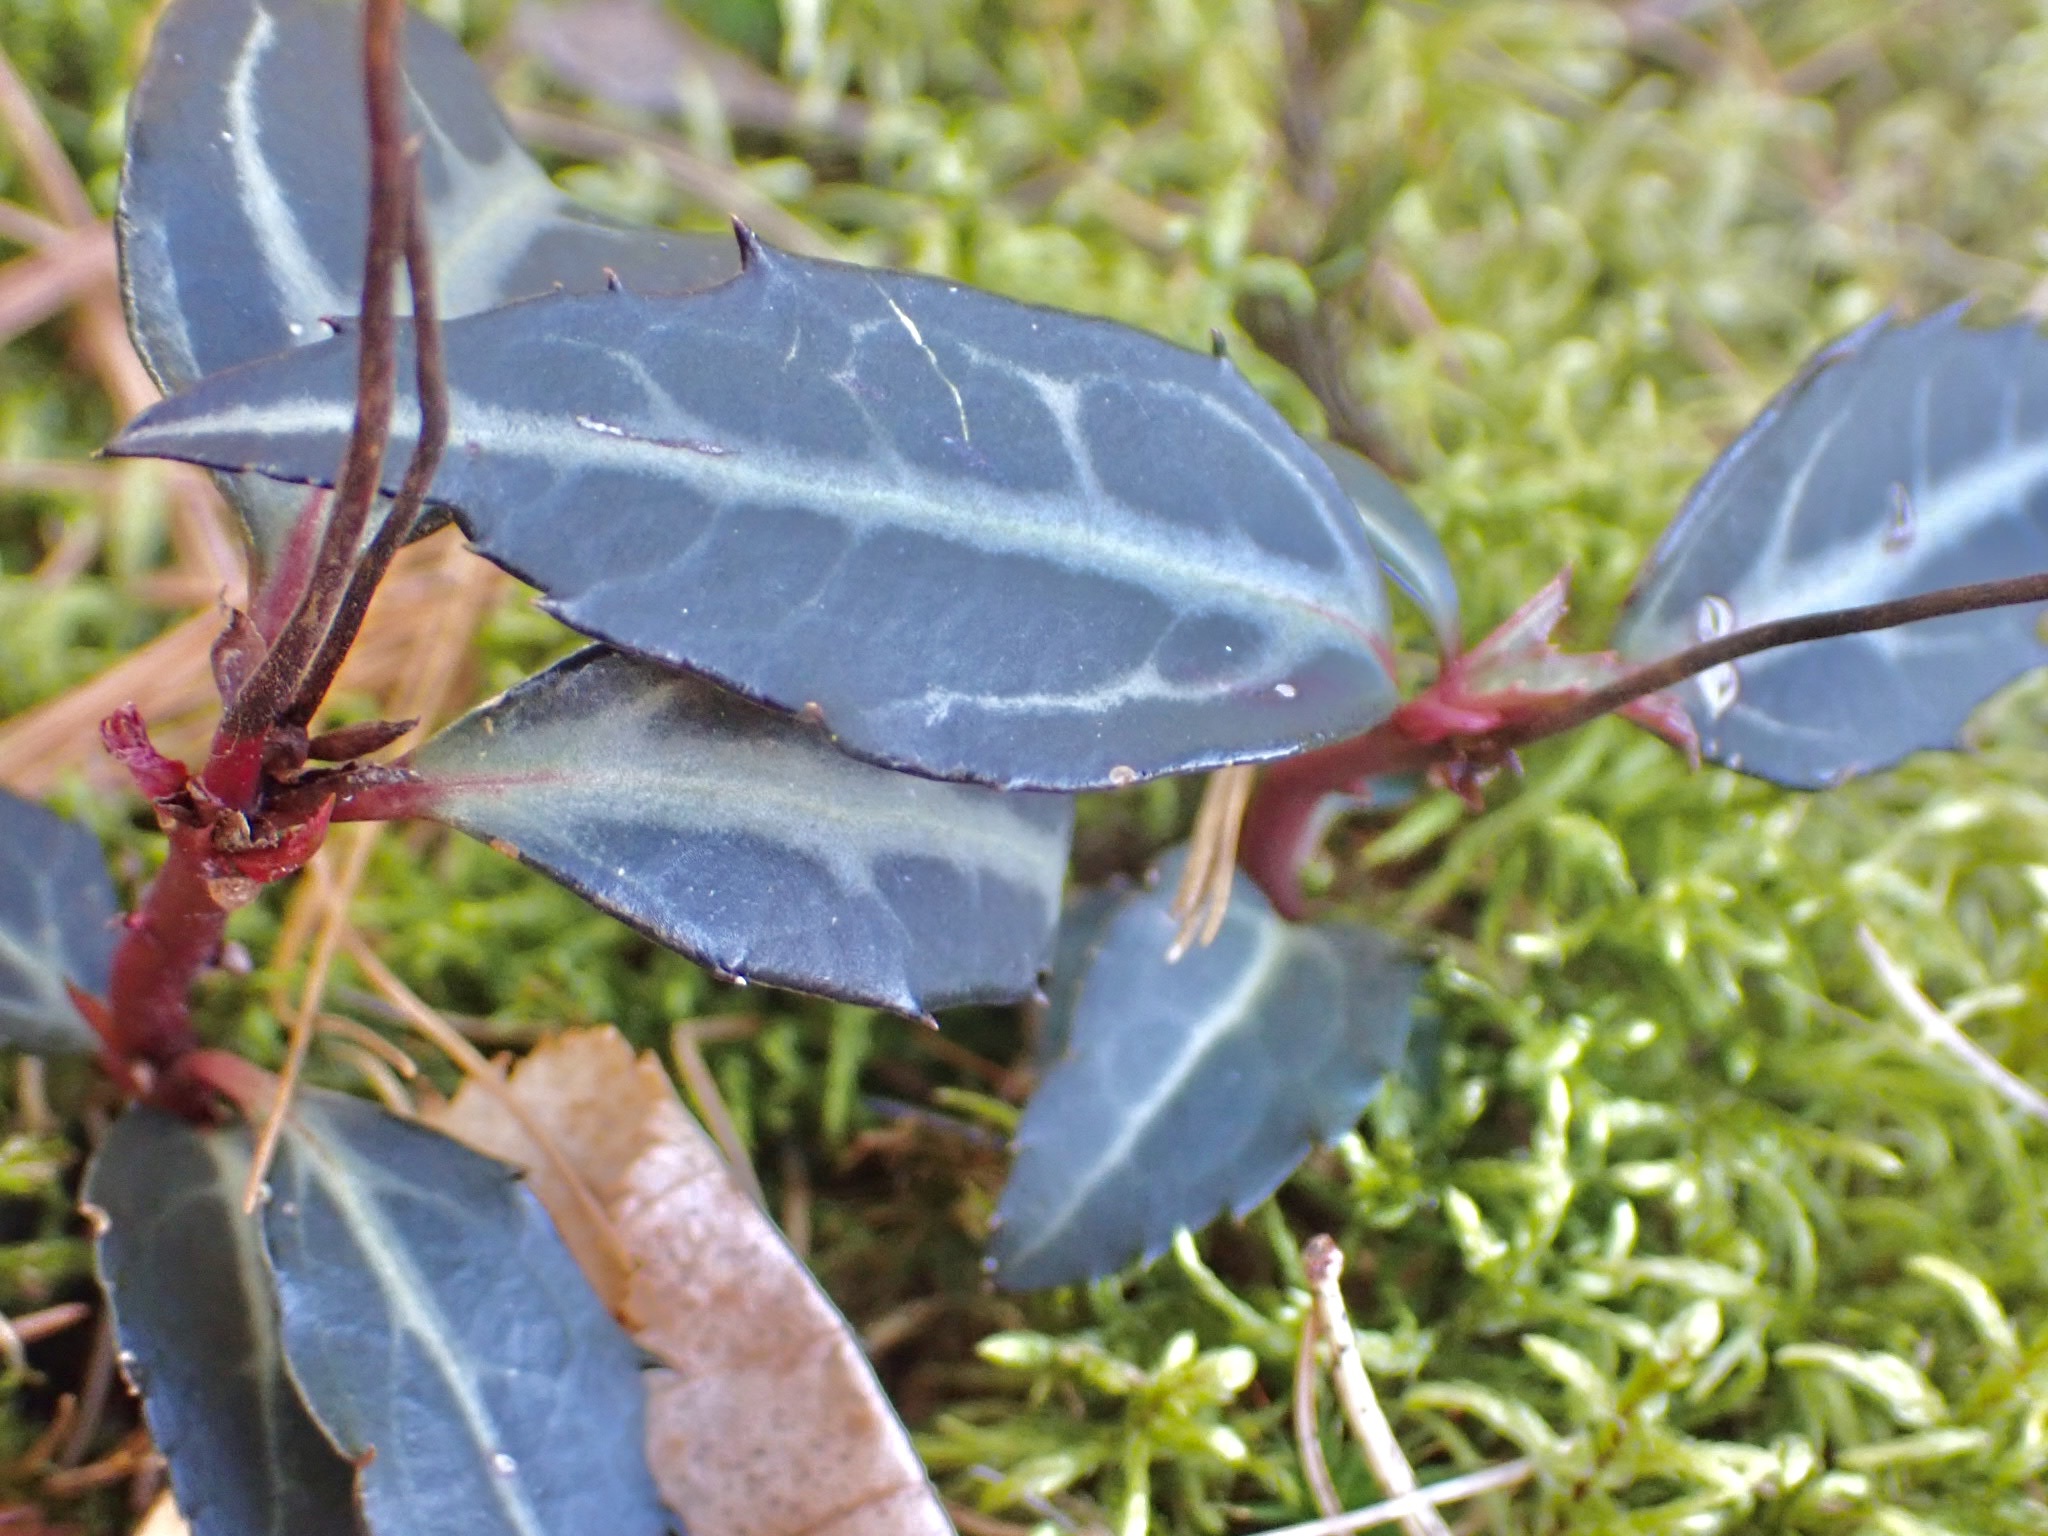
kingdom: Plantae
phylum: Tracheophyta
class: Magnoliopsida
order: Ericales
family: Ericaceae
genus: Chimaphila
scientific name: Chimaphila maculata
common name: Spotted pipsissewa
